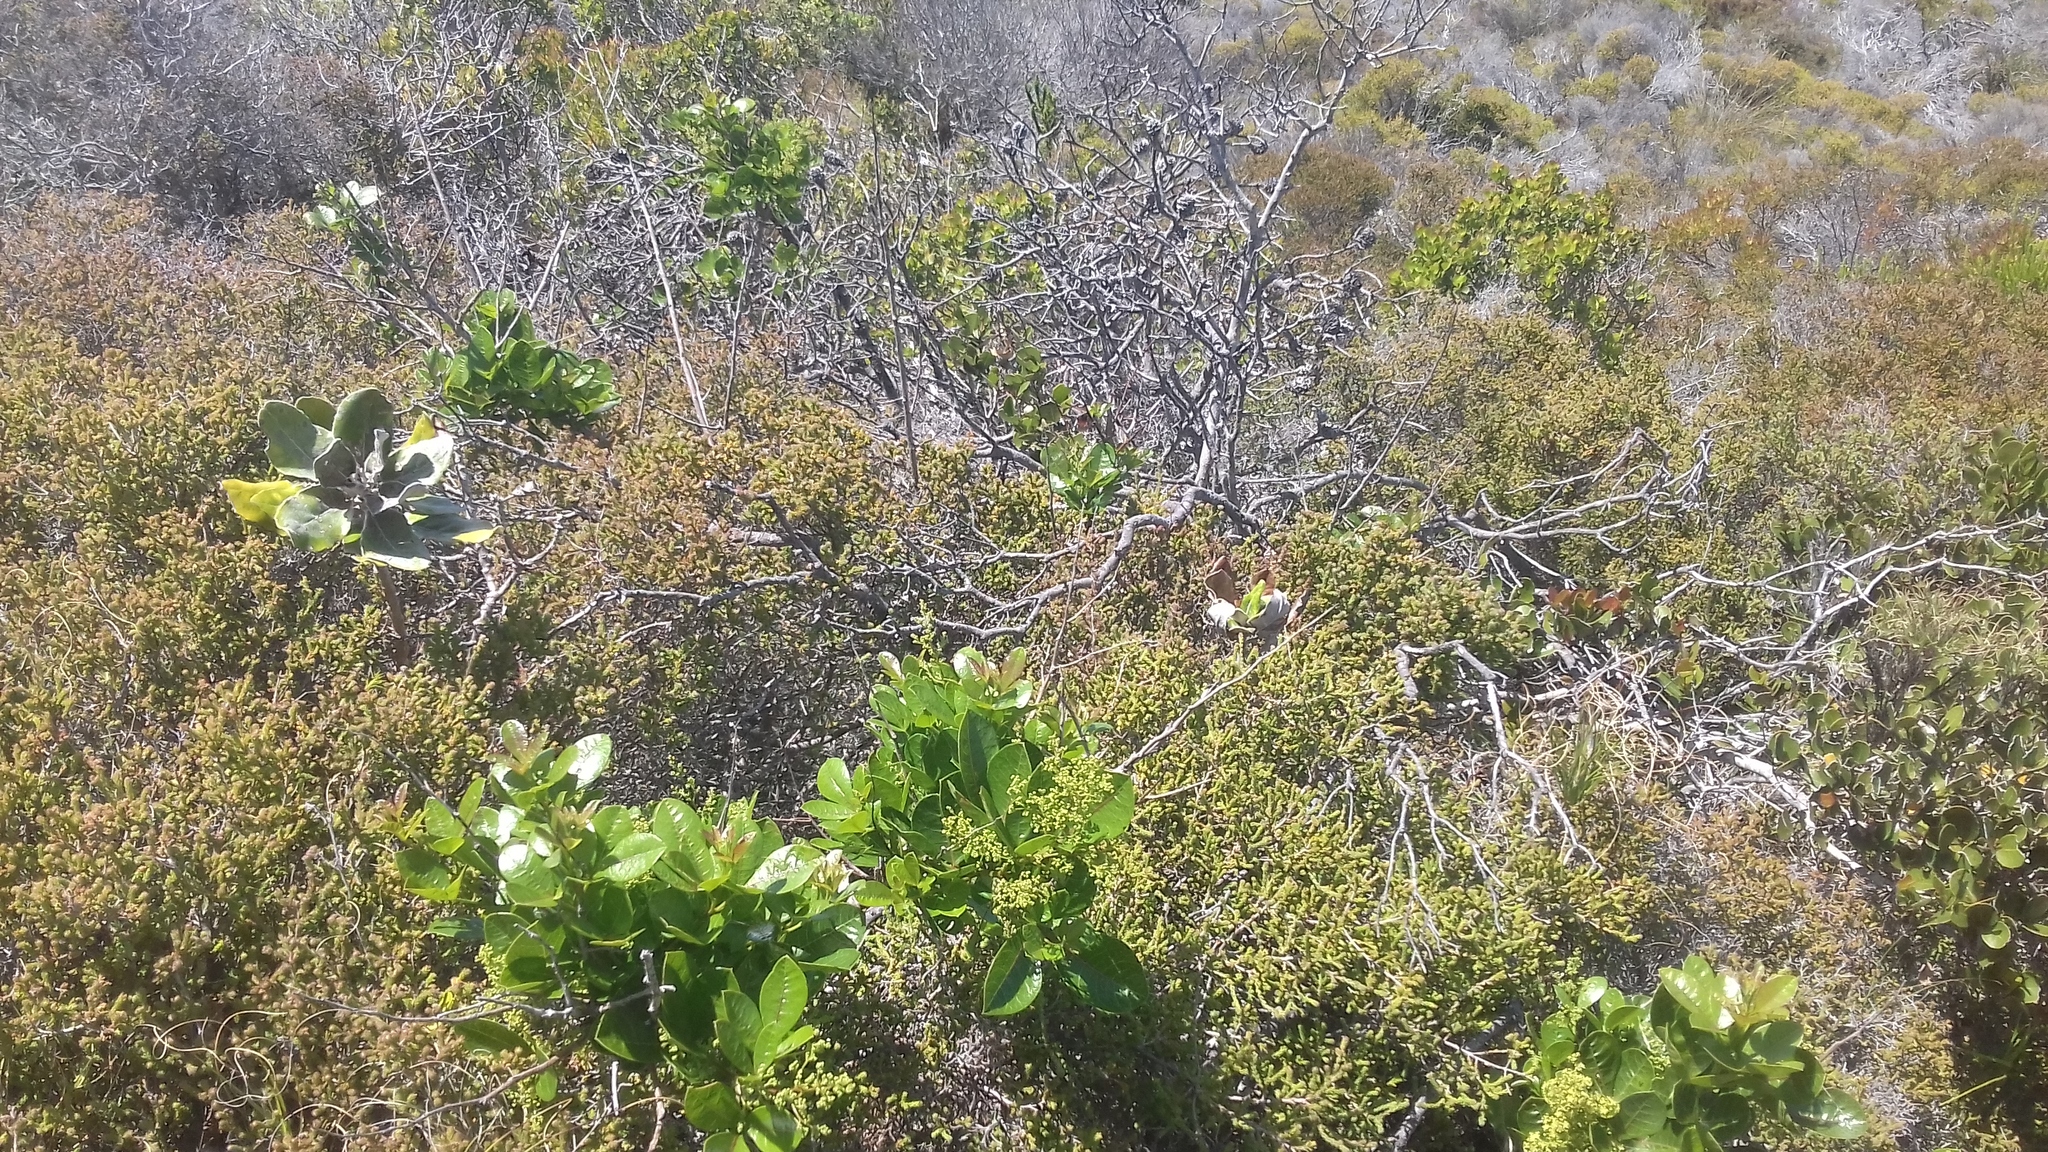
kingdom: Plantae
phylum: Tracheophyta
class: Magnoliopsida
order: Sapindales
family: Anacardiaceae
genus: Searsia
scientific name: Searsia laevigata
